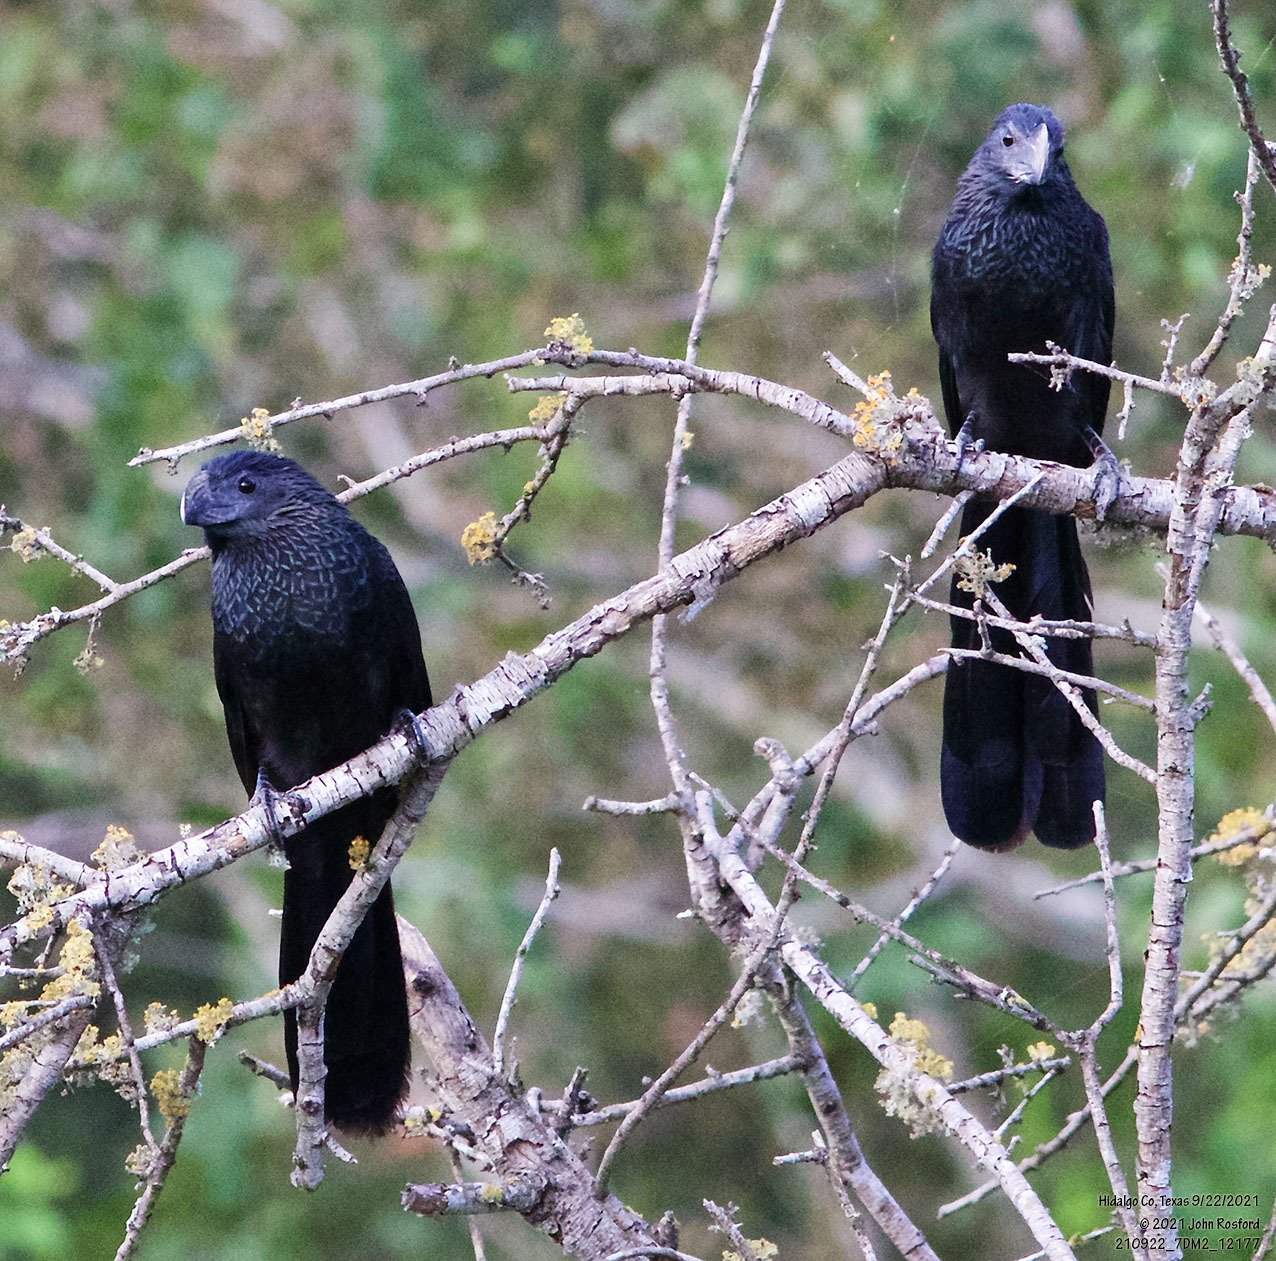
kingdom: Animalia
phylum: Chordata
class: Aves
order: Cuculiformes
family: Cuculidae
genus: Crotophaga
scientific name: Crotophaga sulcirostris
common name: Groove-billed ani
